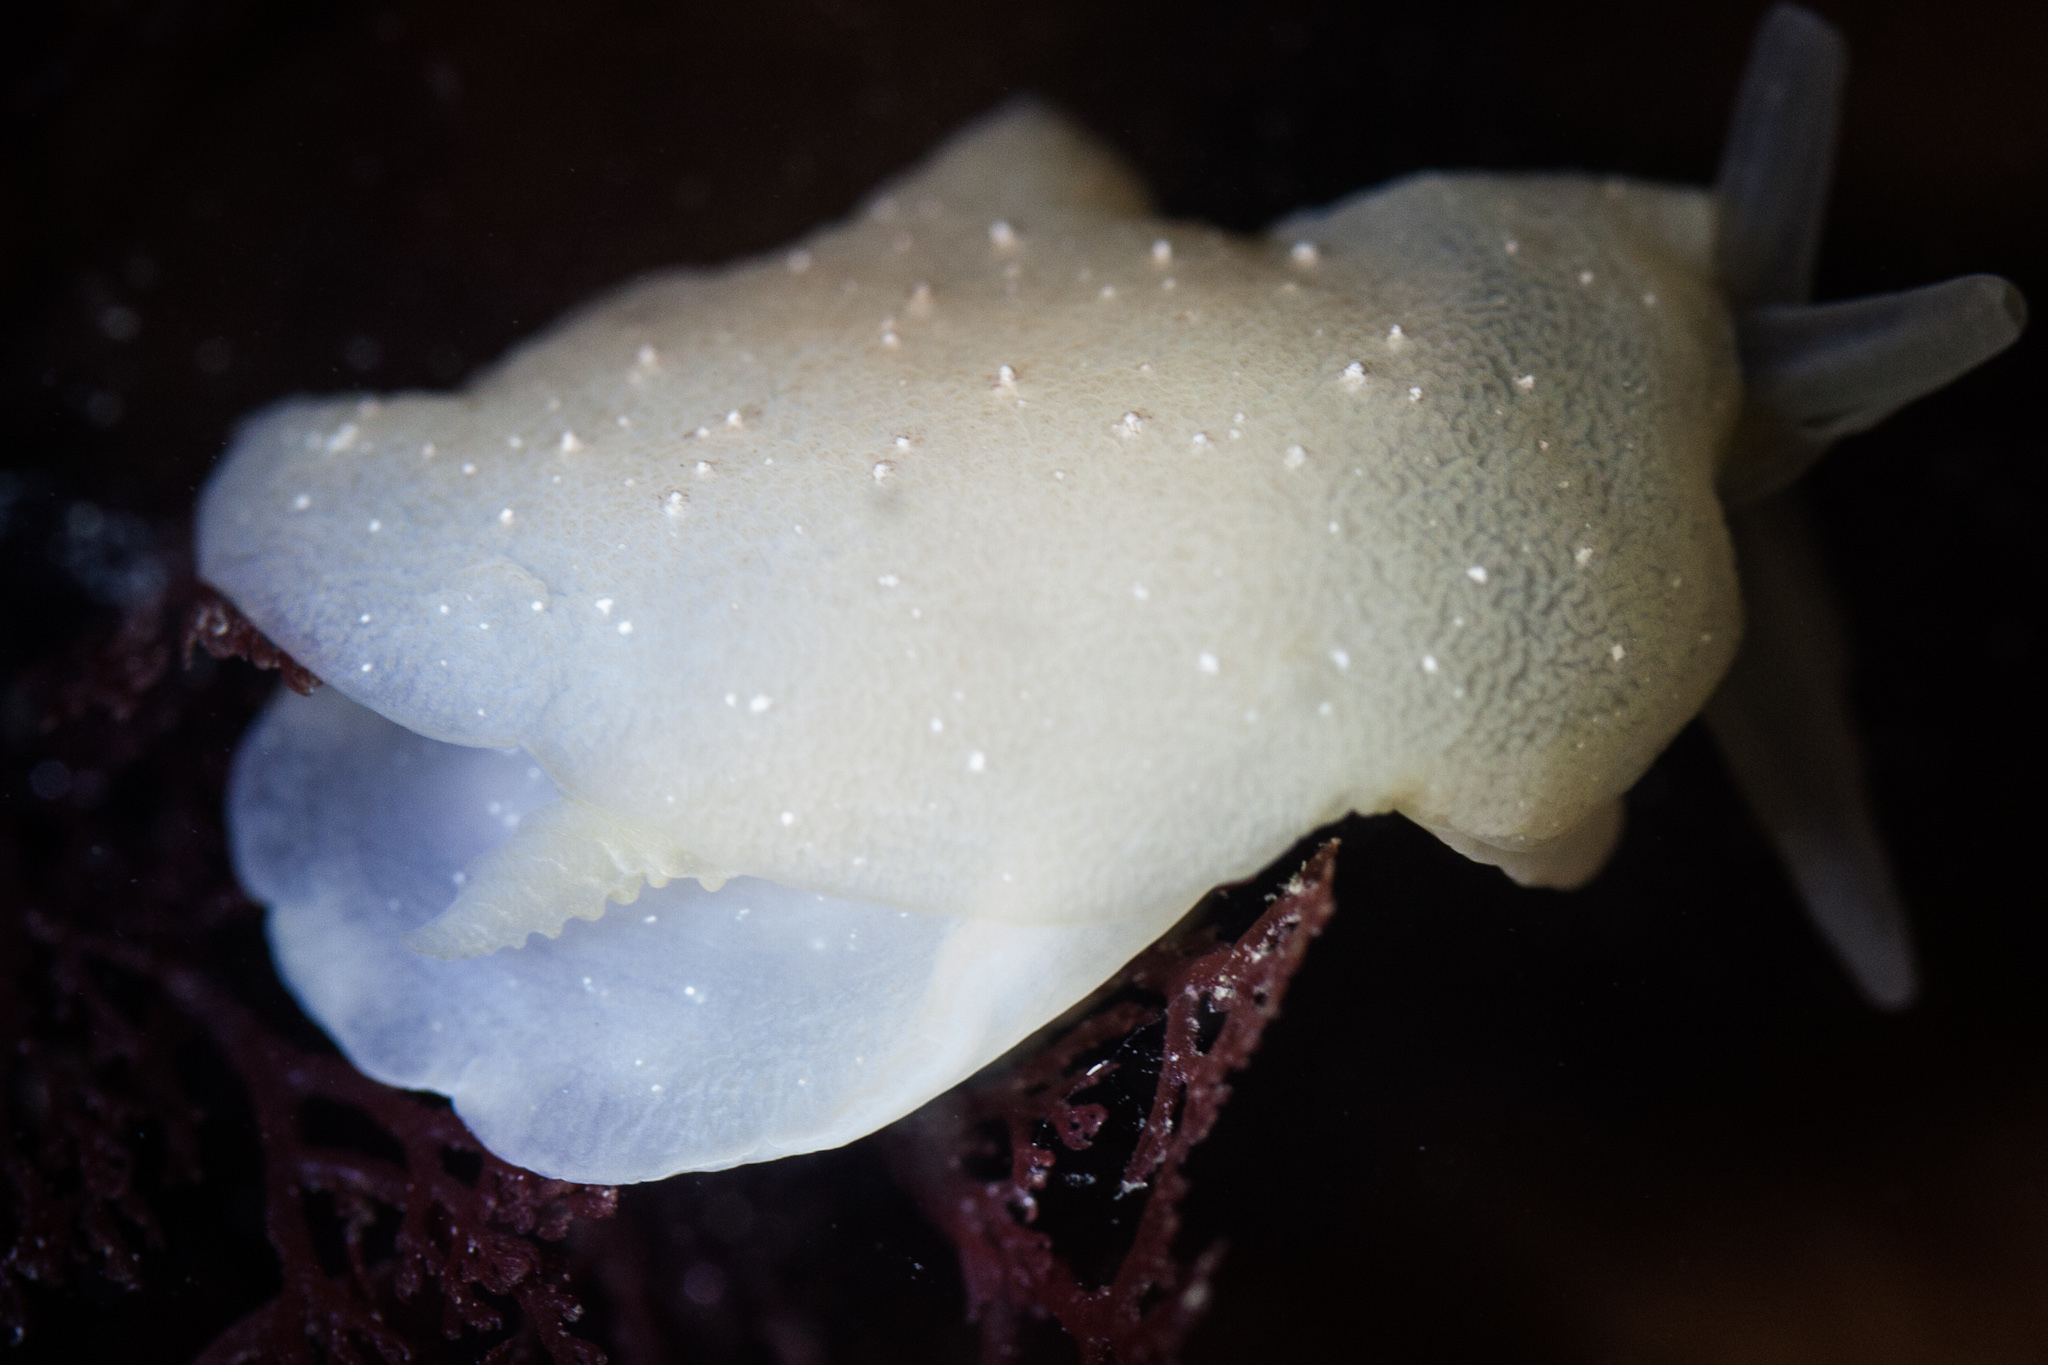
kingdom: Animalia
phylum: Mollusca
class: Gastropoda
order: Pleurobranchida
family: Pleurobranchidae
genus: Pleurehdera
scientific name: Pleurehdera
